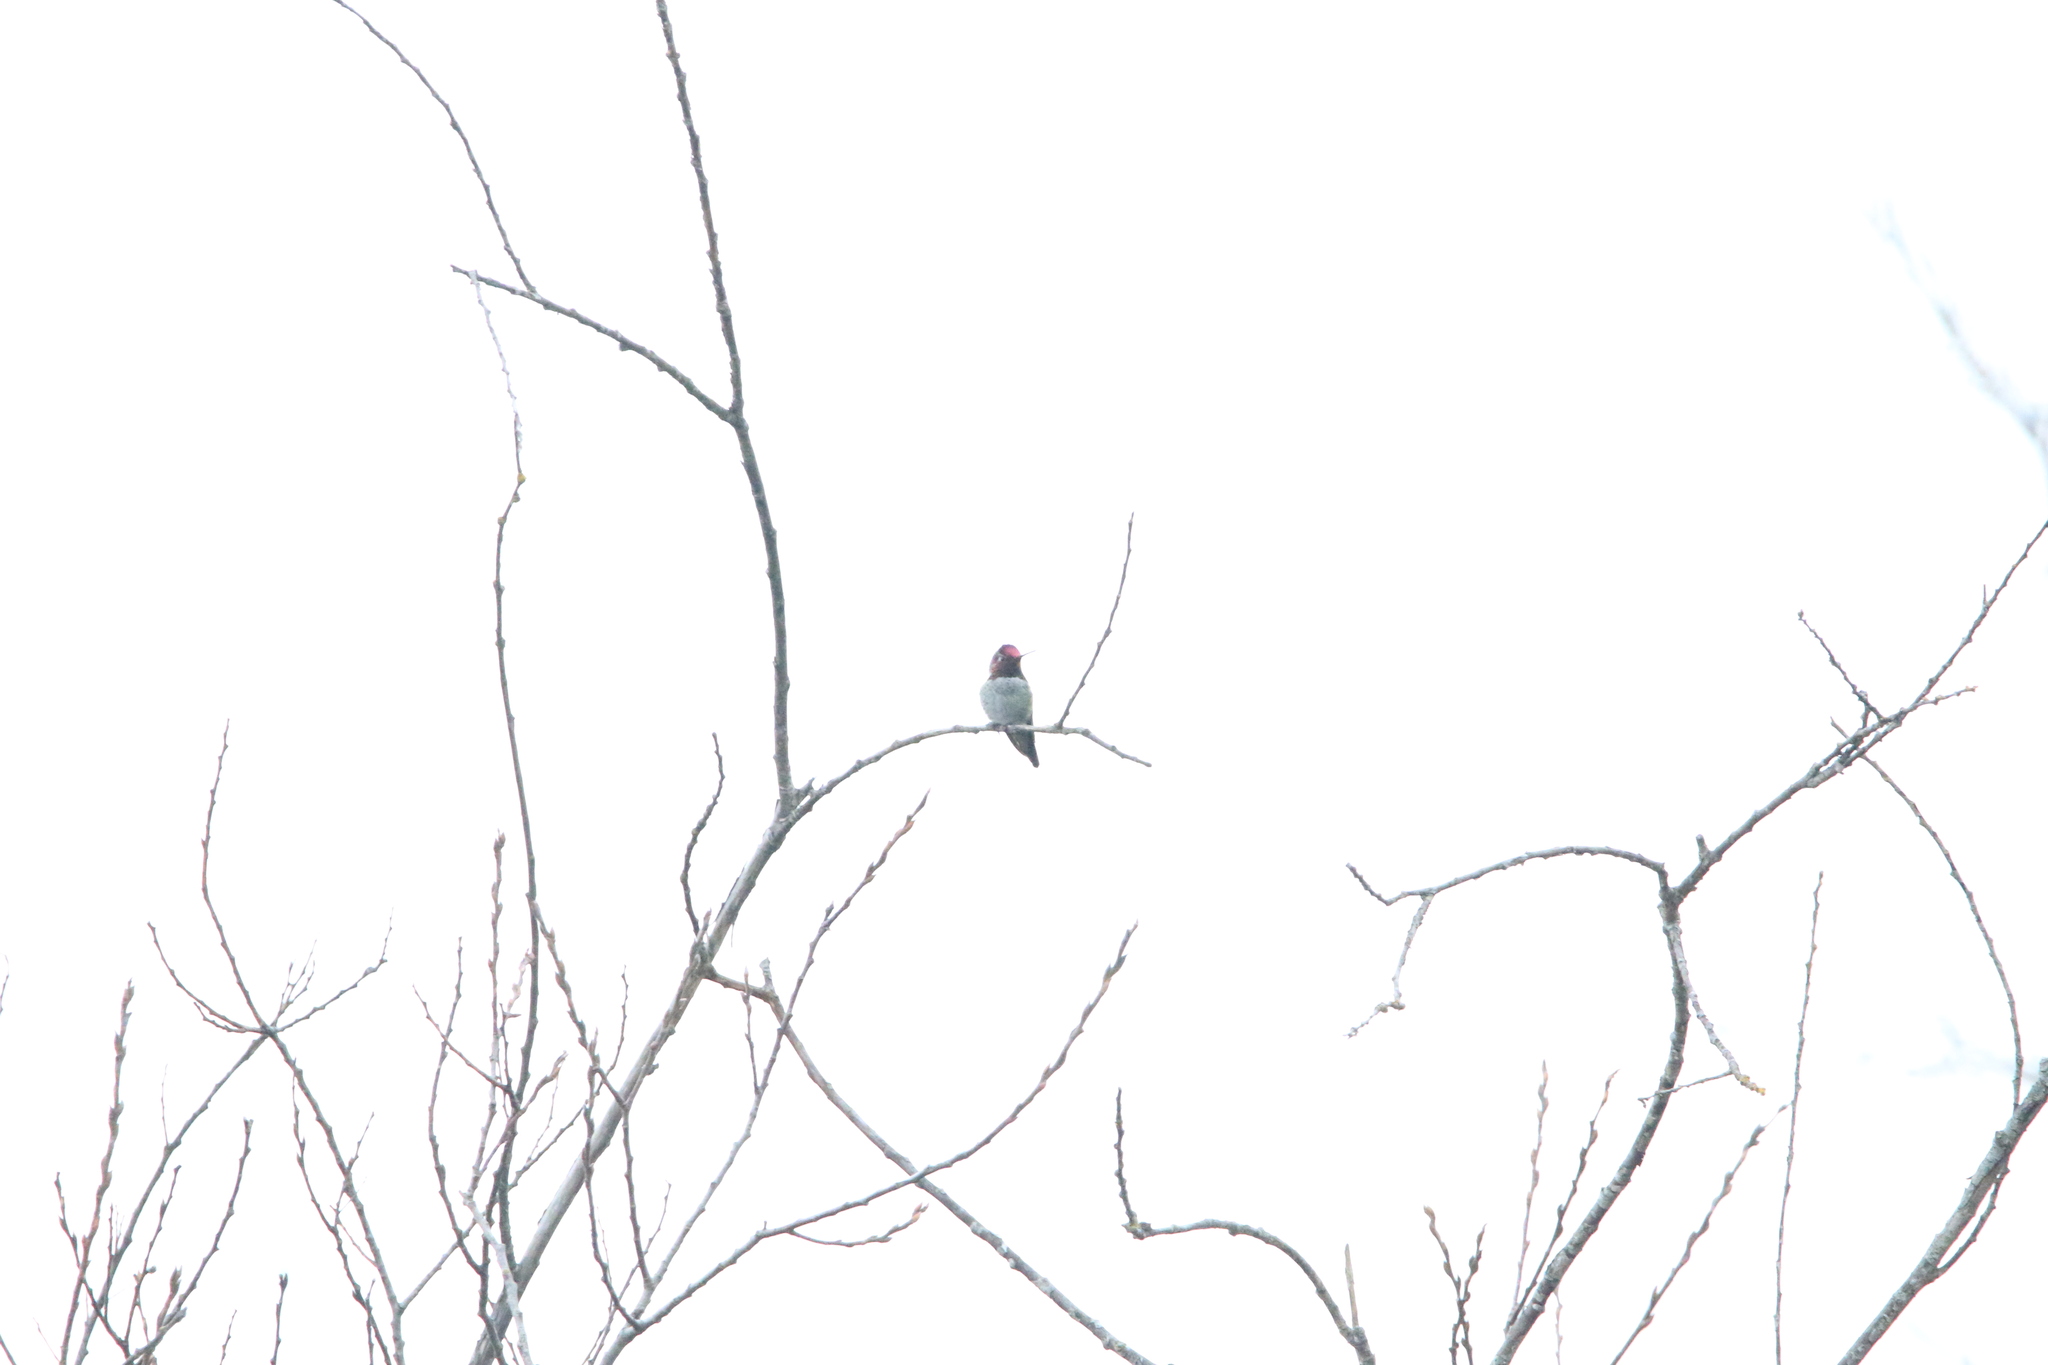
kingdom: Animalia
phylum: Chordata
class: Aves
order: Apodiformes
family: Trochilidae
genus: Calypte
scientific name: Calypte anna
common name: Anna's hummingbird
